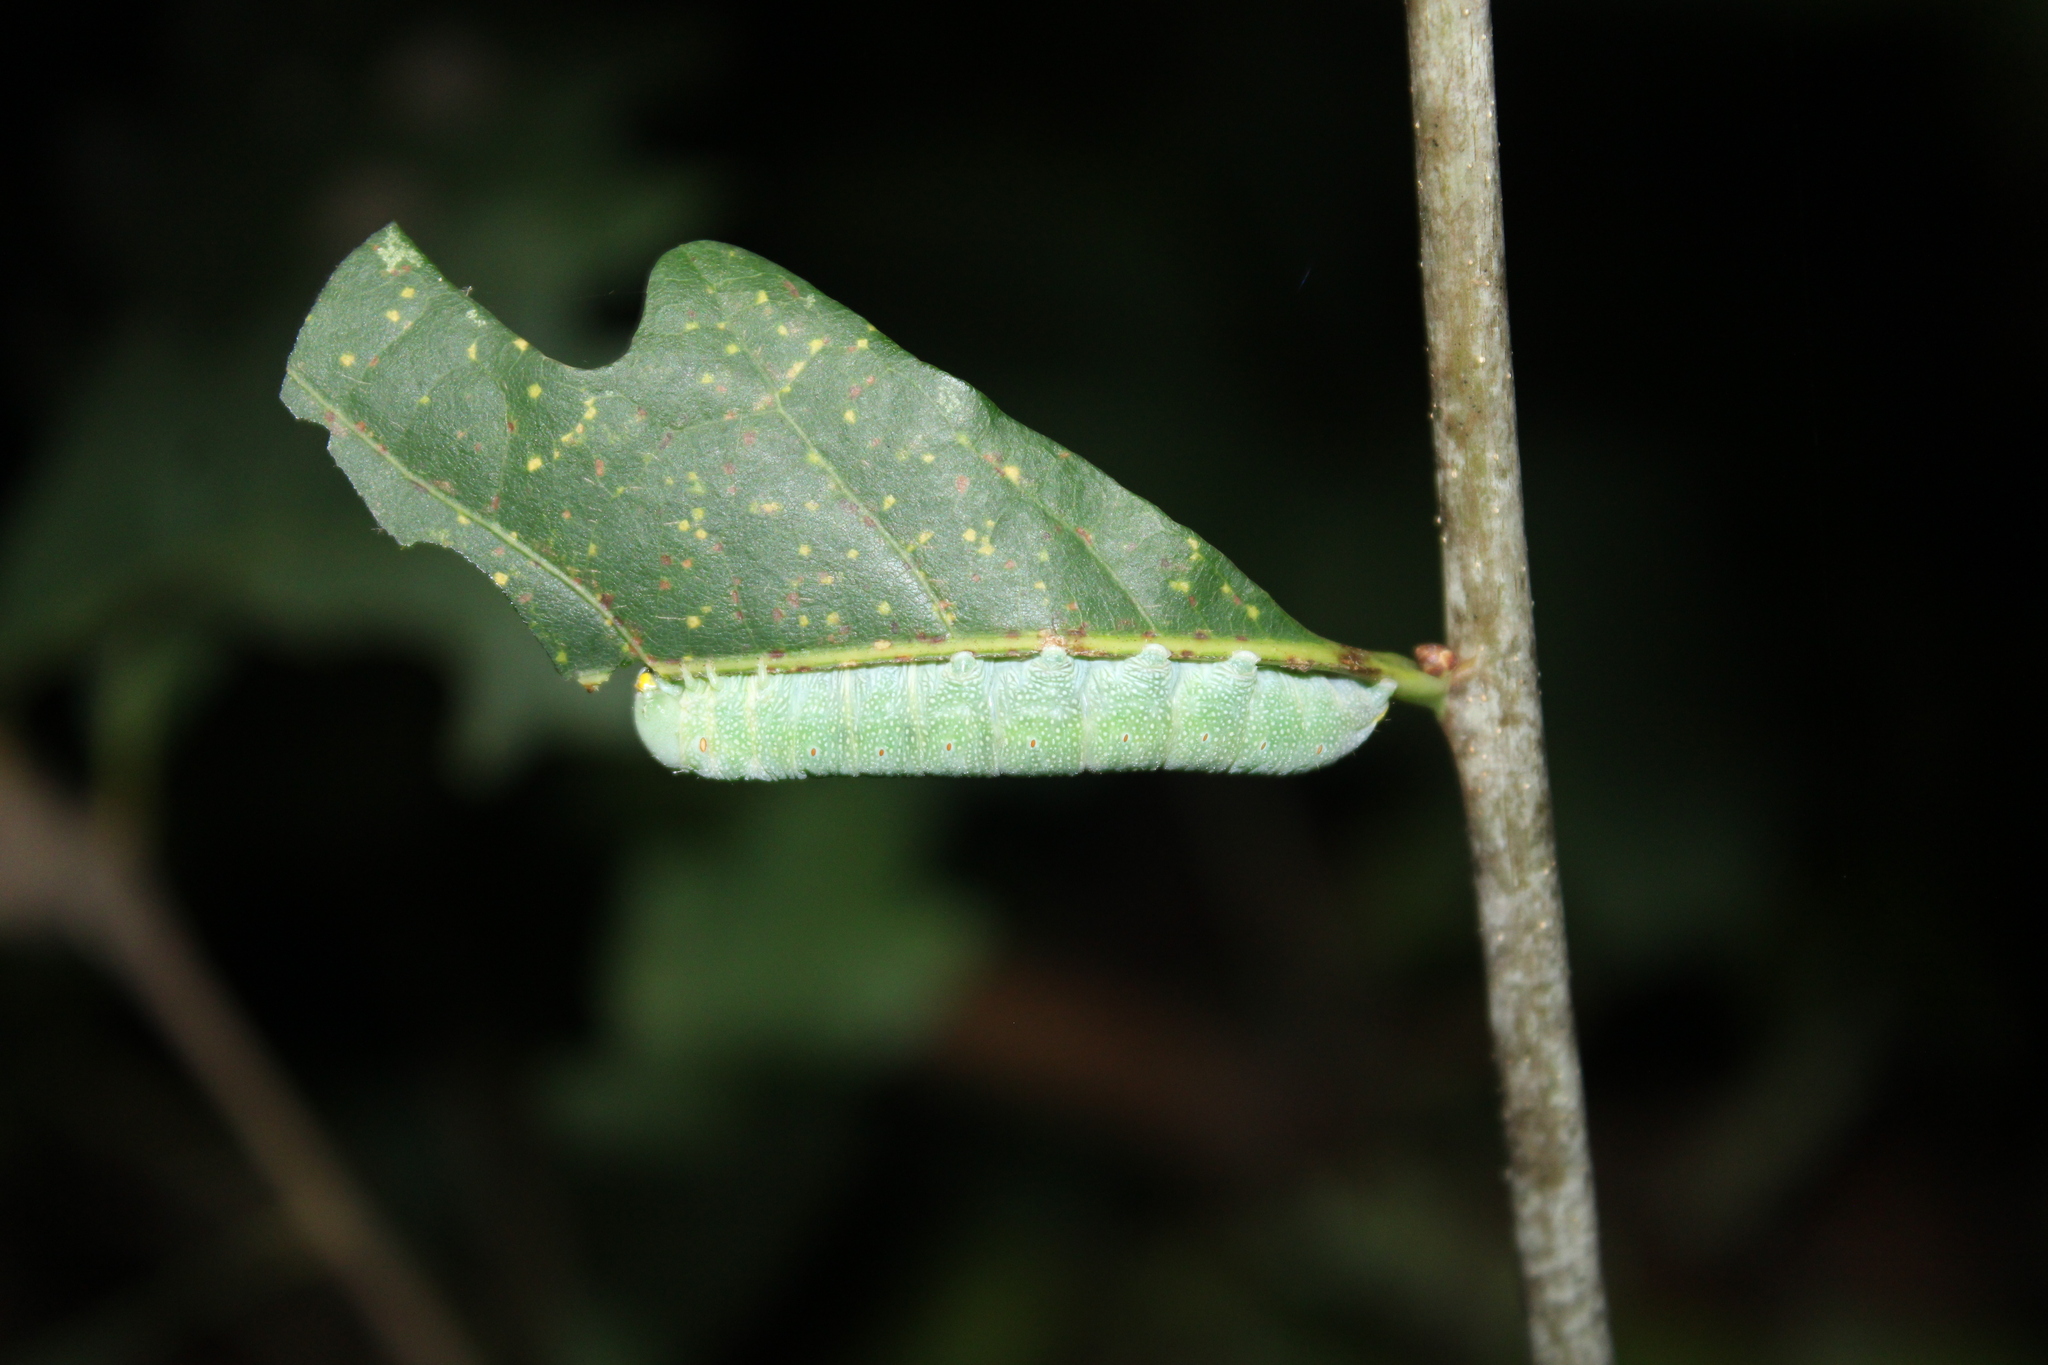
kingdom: Animalia
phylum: Arthropoda
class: Insecta
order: Lepidoptera
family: Notodontidae
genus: Nadata
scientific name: Nadata gibbosa
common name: White-dotted prominent
